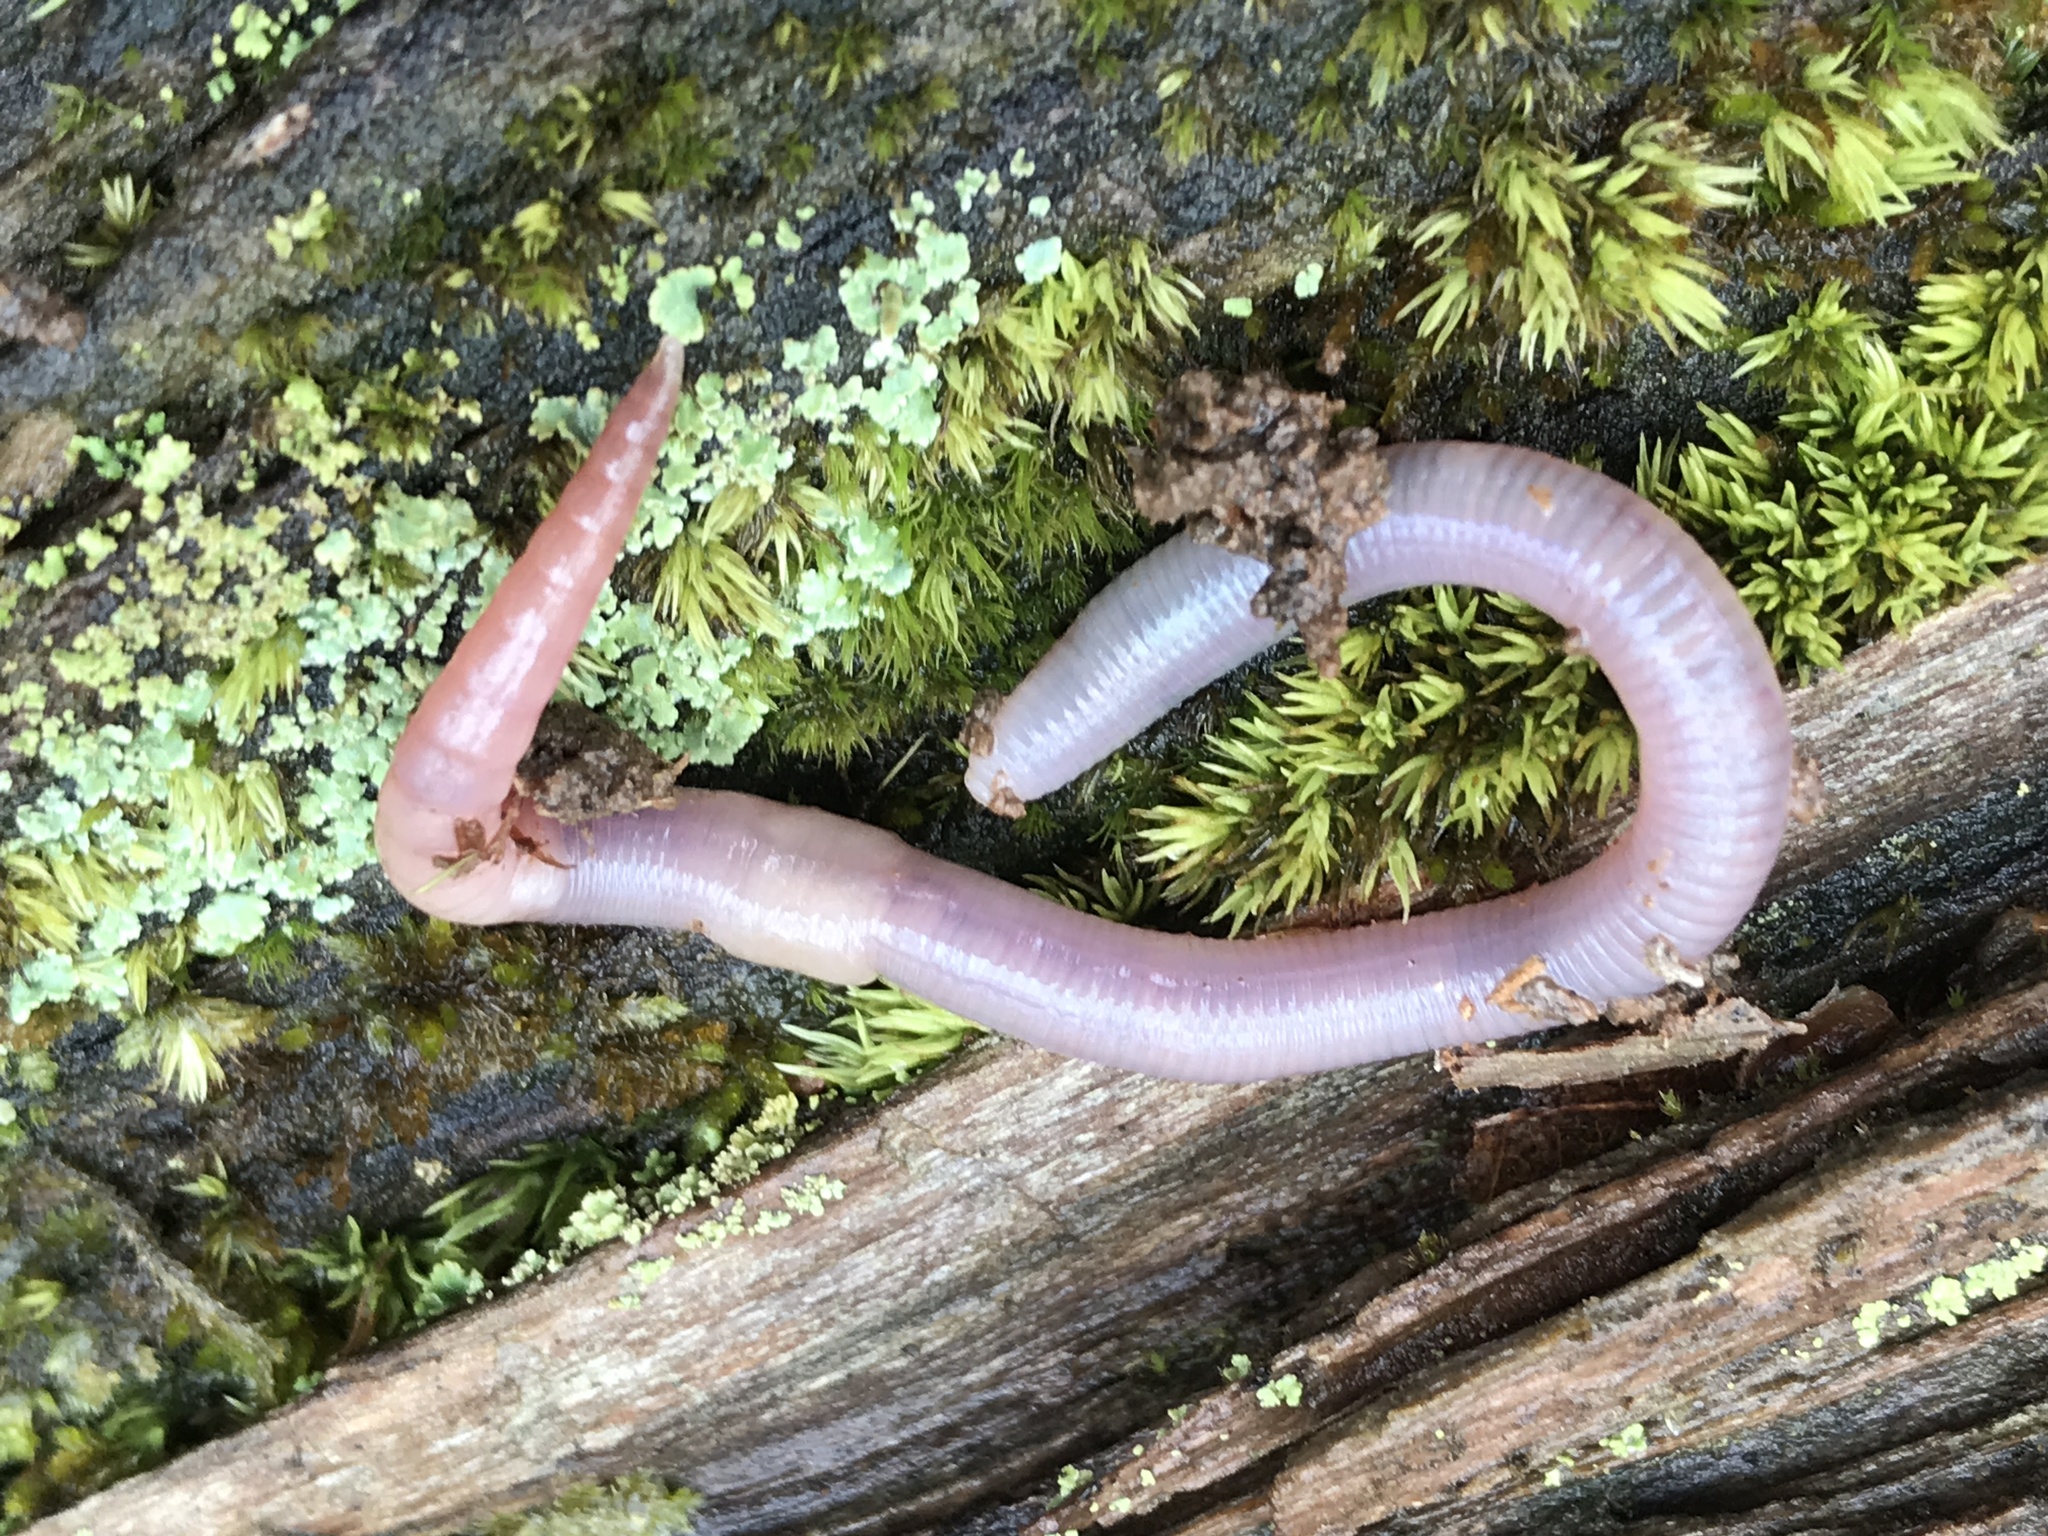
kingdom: Animalia
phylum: Annelida
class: Clitellata
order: Crassiclitellata
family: Lumbricidae
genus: Lumbricus
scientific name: Lumbricus terrestris
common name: Common earthworm
